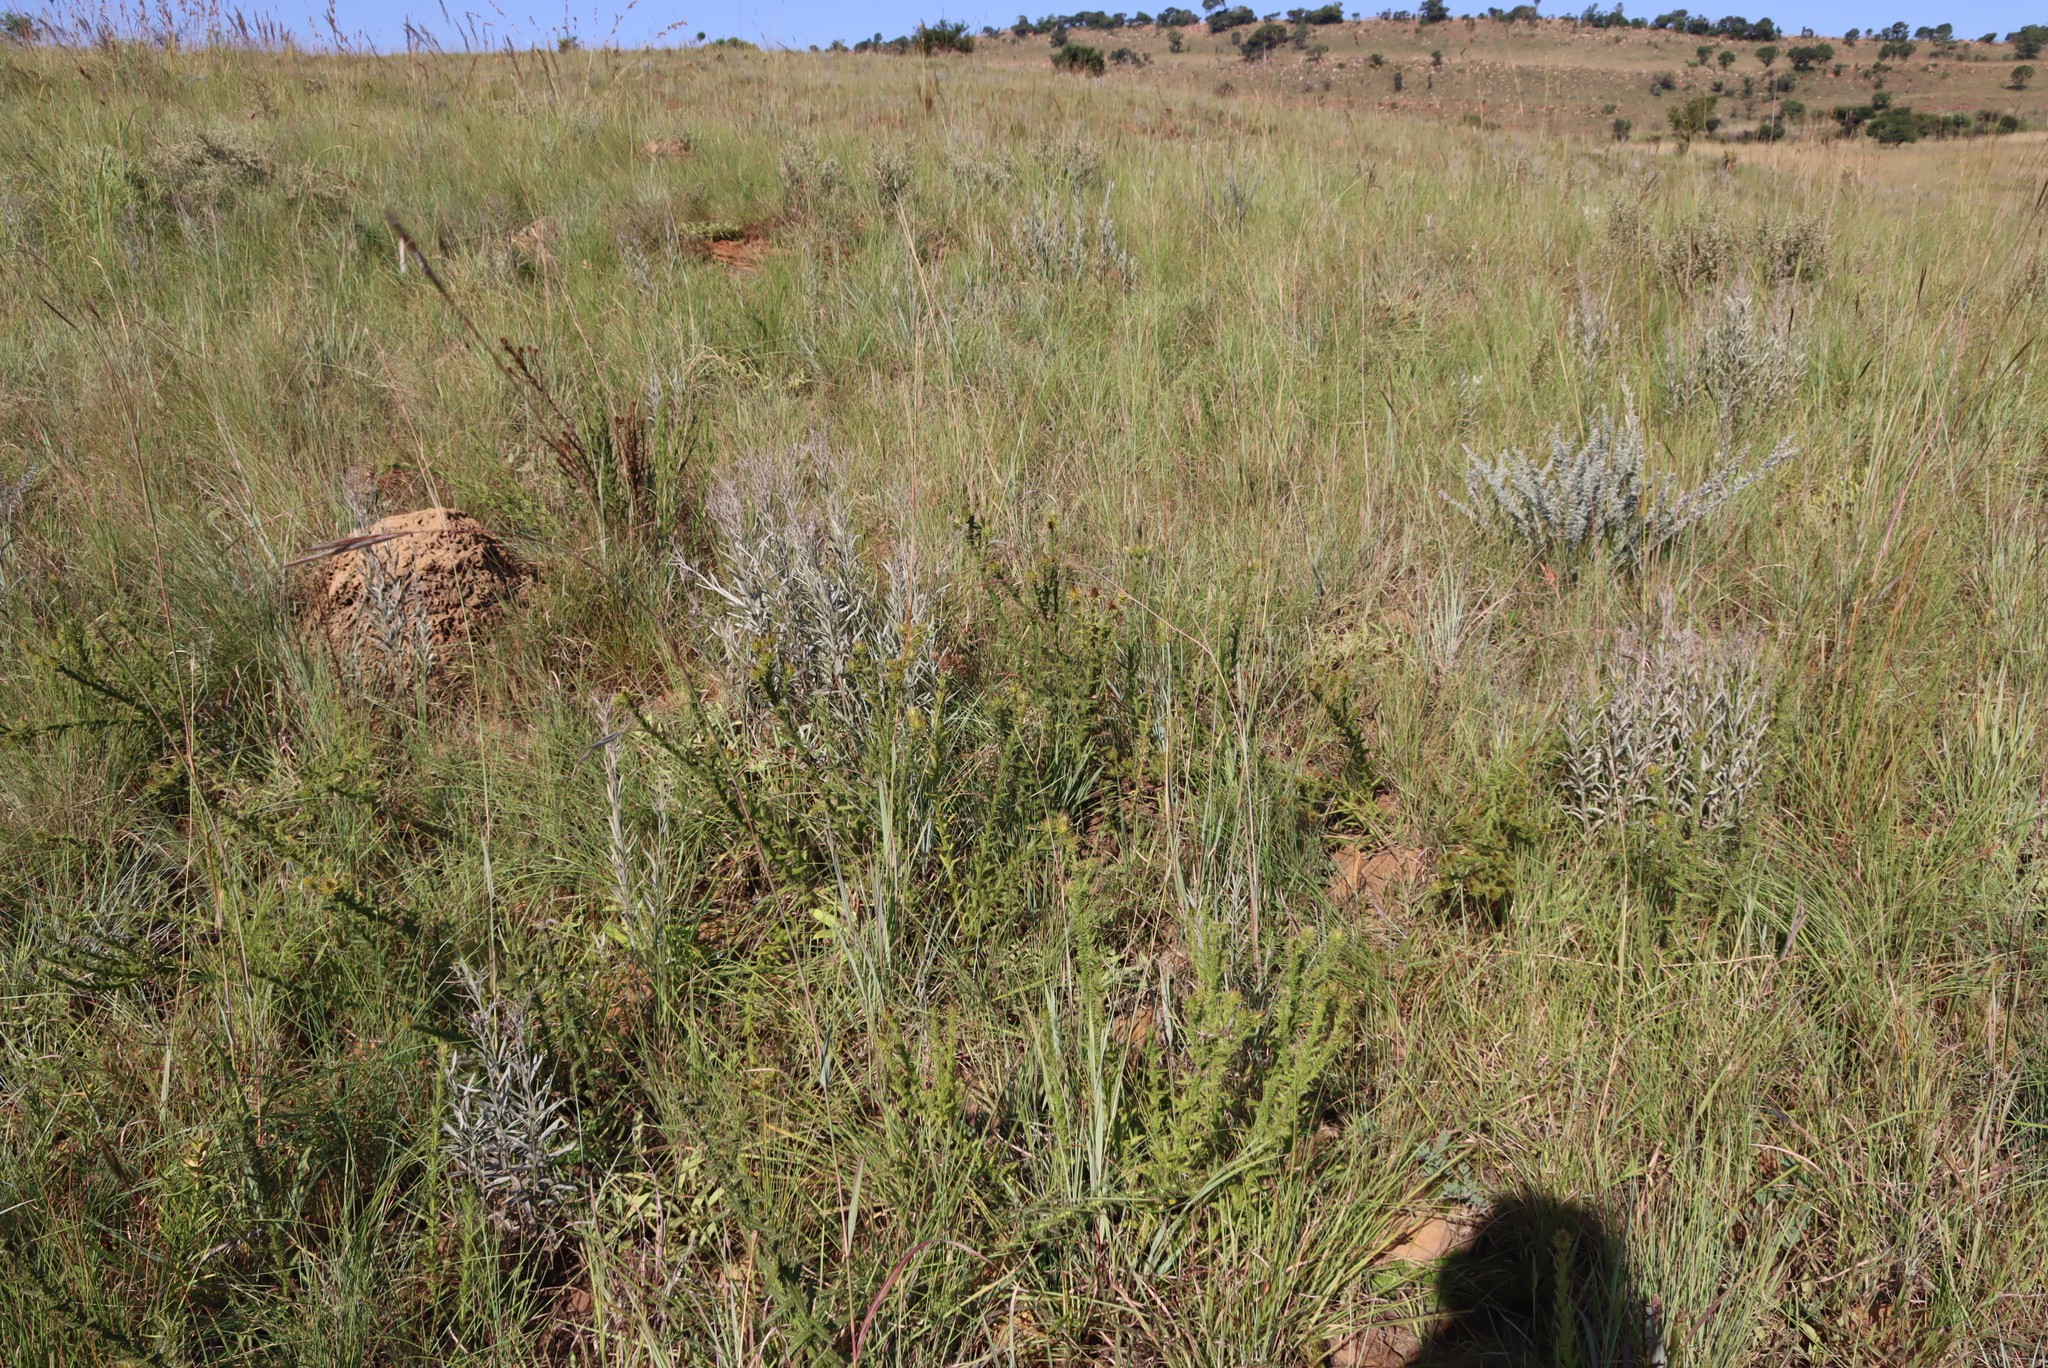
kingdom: Plantae
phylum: Tracheophyta
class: Magnoliopsida
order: Asterales
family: Asteraceae
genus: Berkheya
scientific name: Berkheya echinacea
